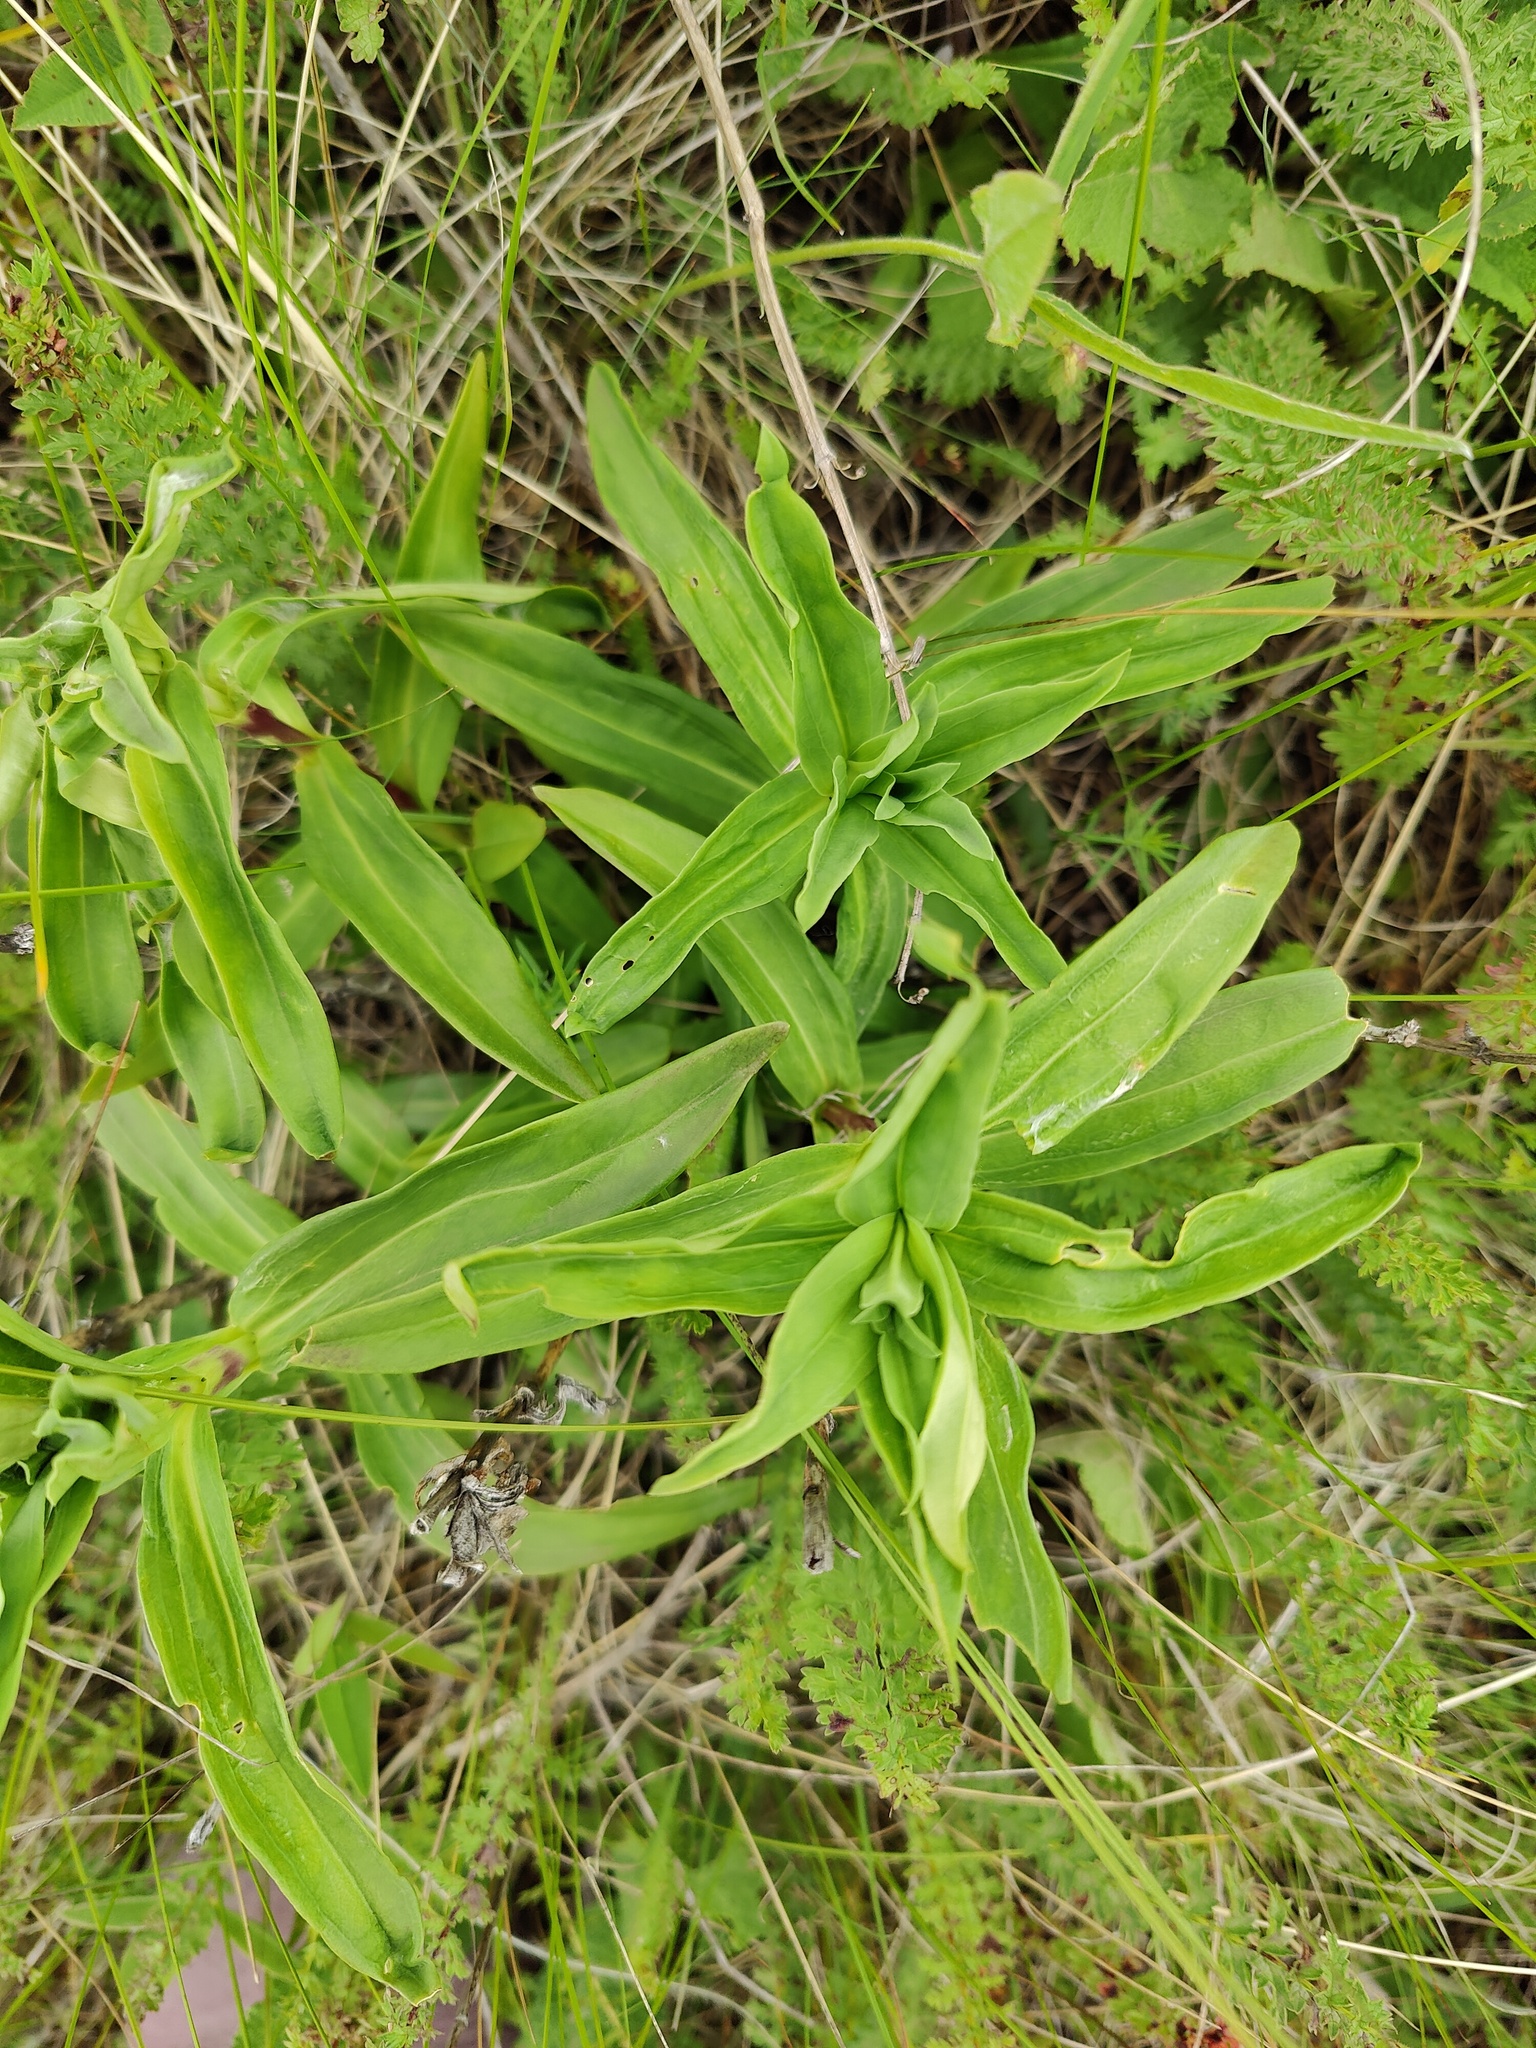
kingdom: Plantae
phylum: Tracheophyta
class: Magnoliopsida
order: Gentianales
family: Gentianaceae
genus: Gentiana
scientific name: Gentiana cruciata
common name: Cross gentian
